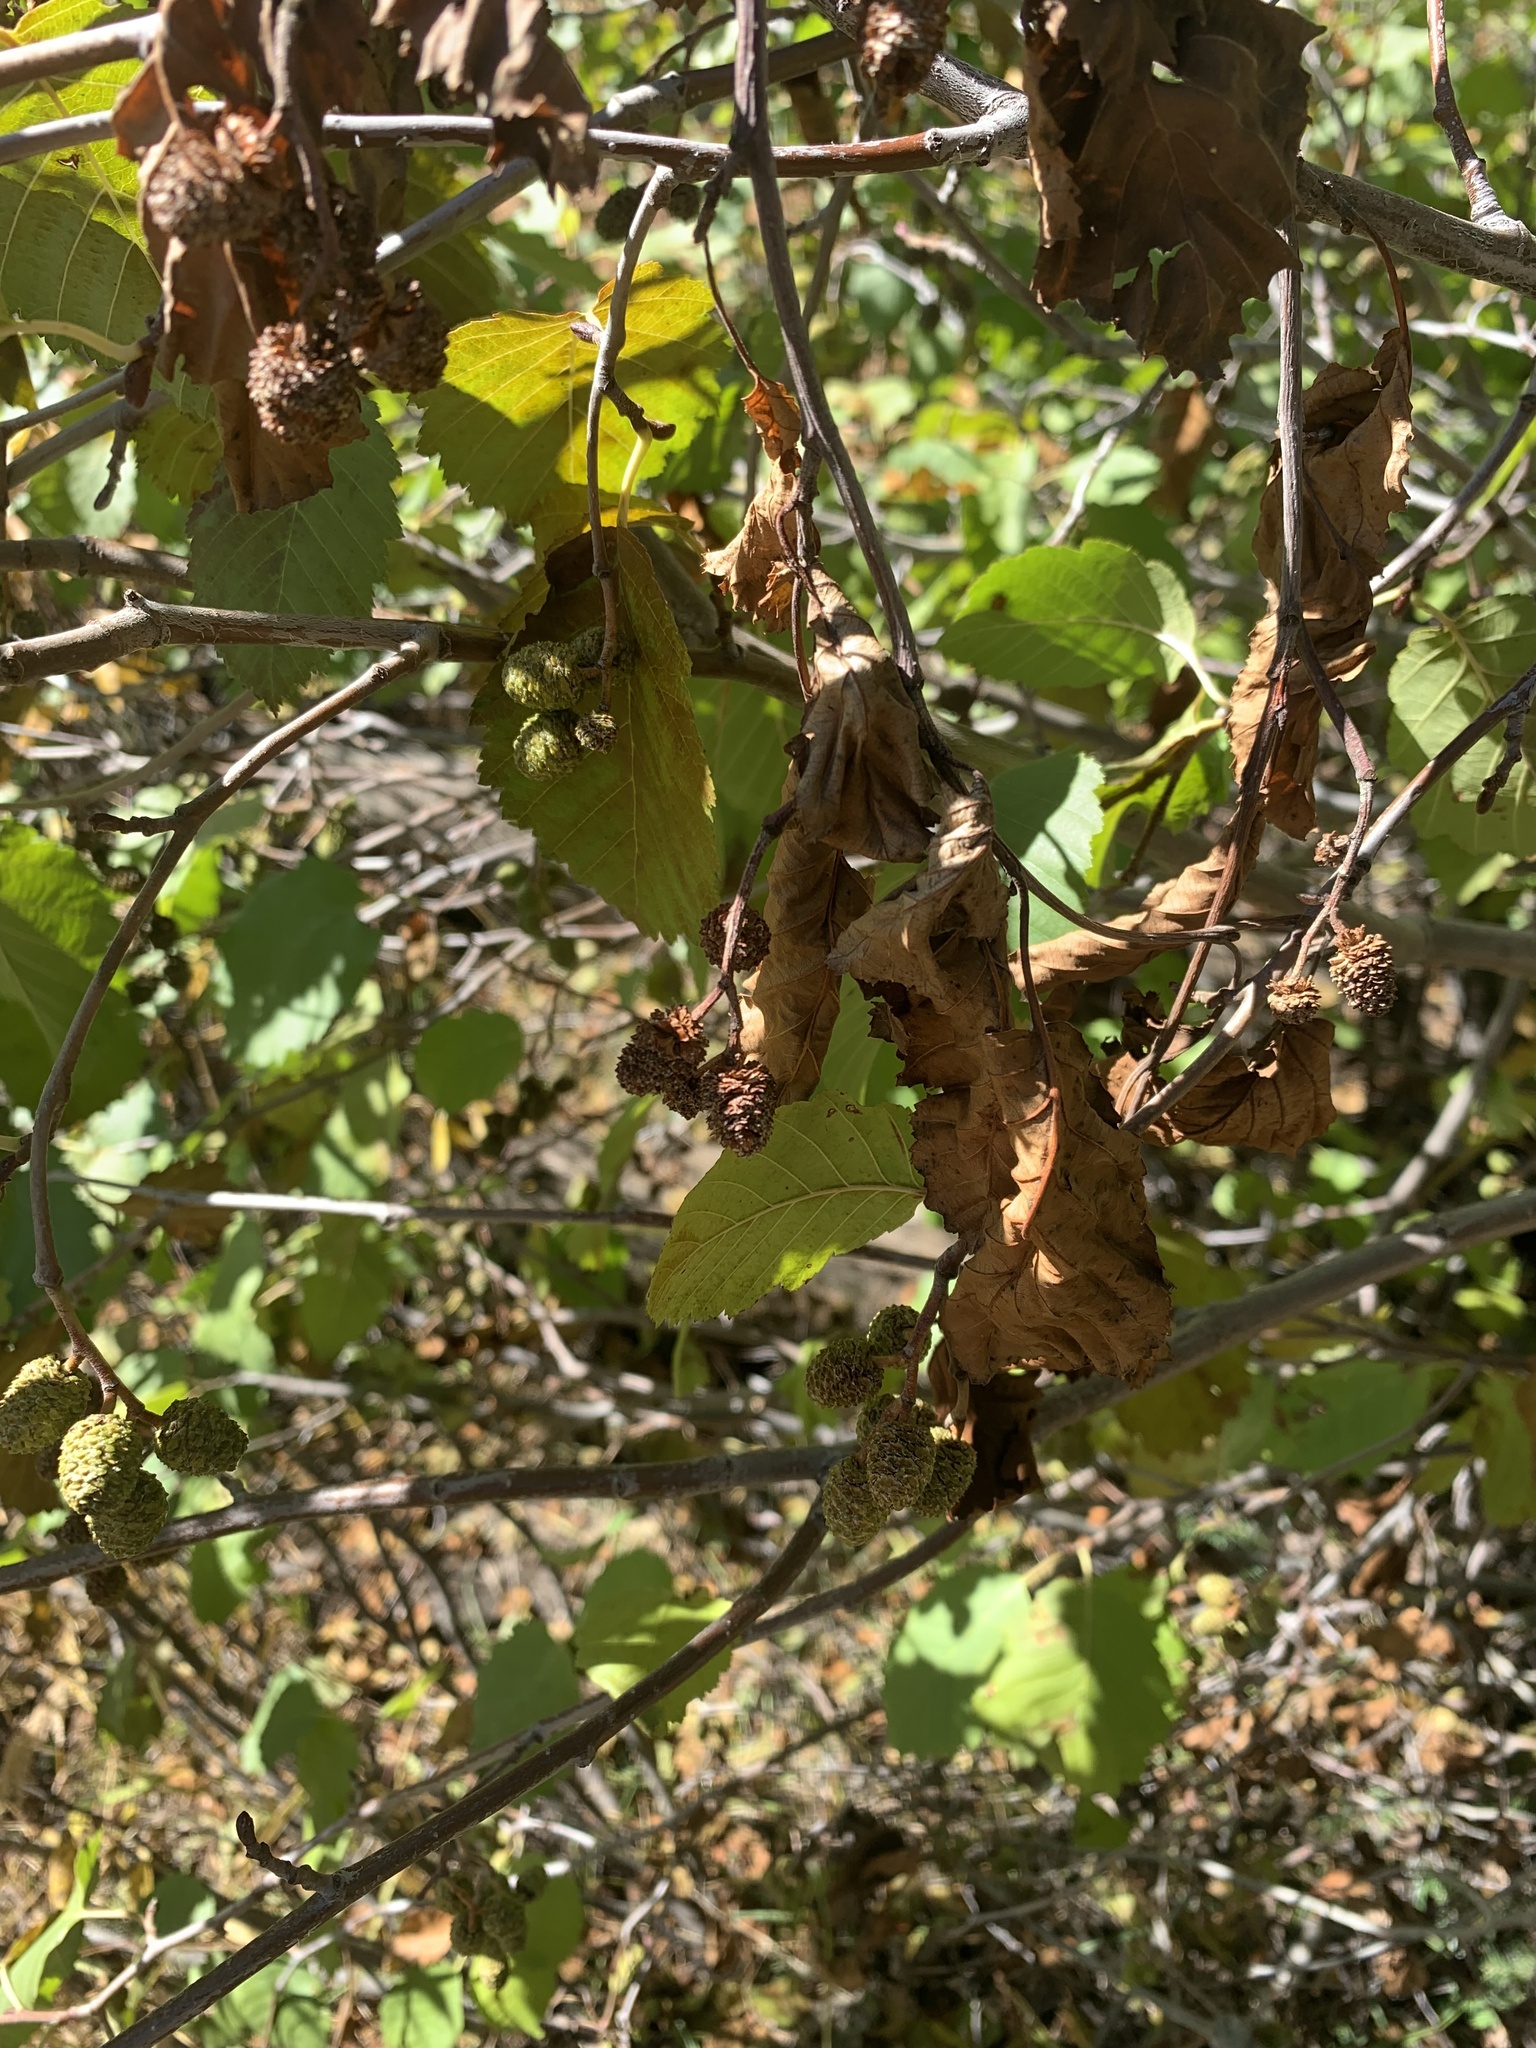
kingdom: Plantae
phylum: Tracheophyta
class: Magnoliopsida
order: Fagales
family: Betulaceae
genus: Alnus
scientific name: Alnus incana
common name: Grey alder
